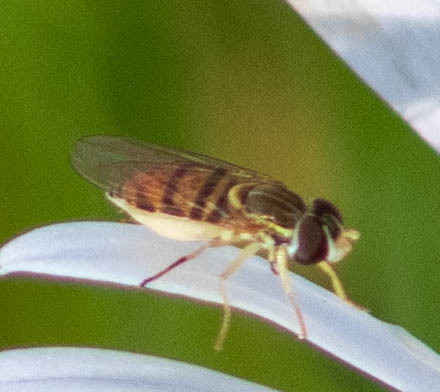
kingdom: Animalia
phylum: Arthropoda
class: Insecta
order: Diptera
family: Syrphidae
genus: Toxomerus
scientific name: Toxomerus marginatus
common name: Syrphid fly
